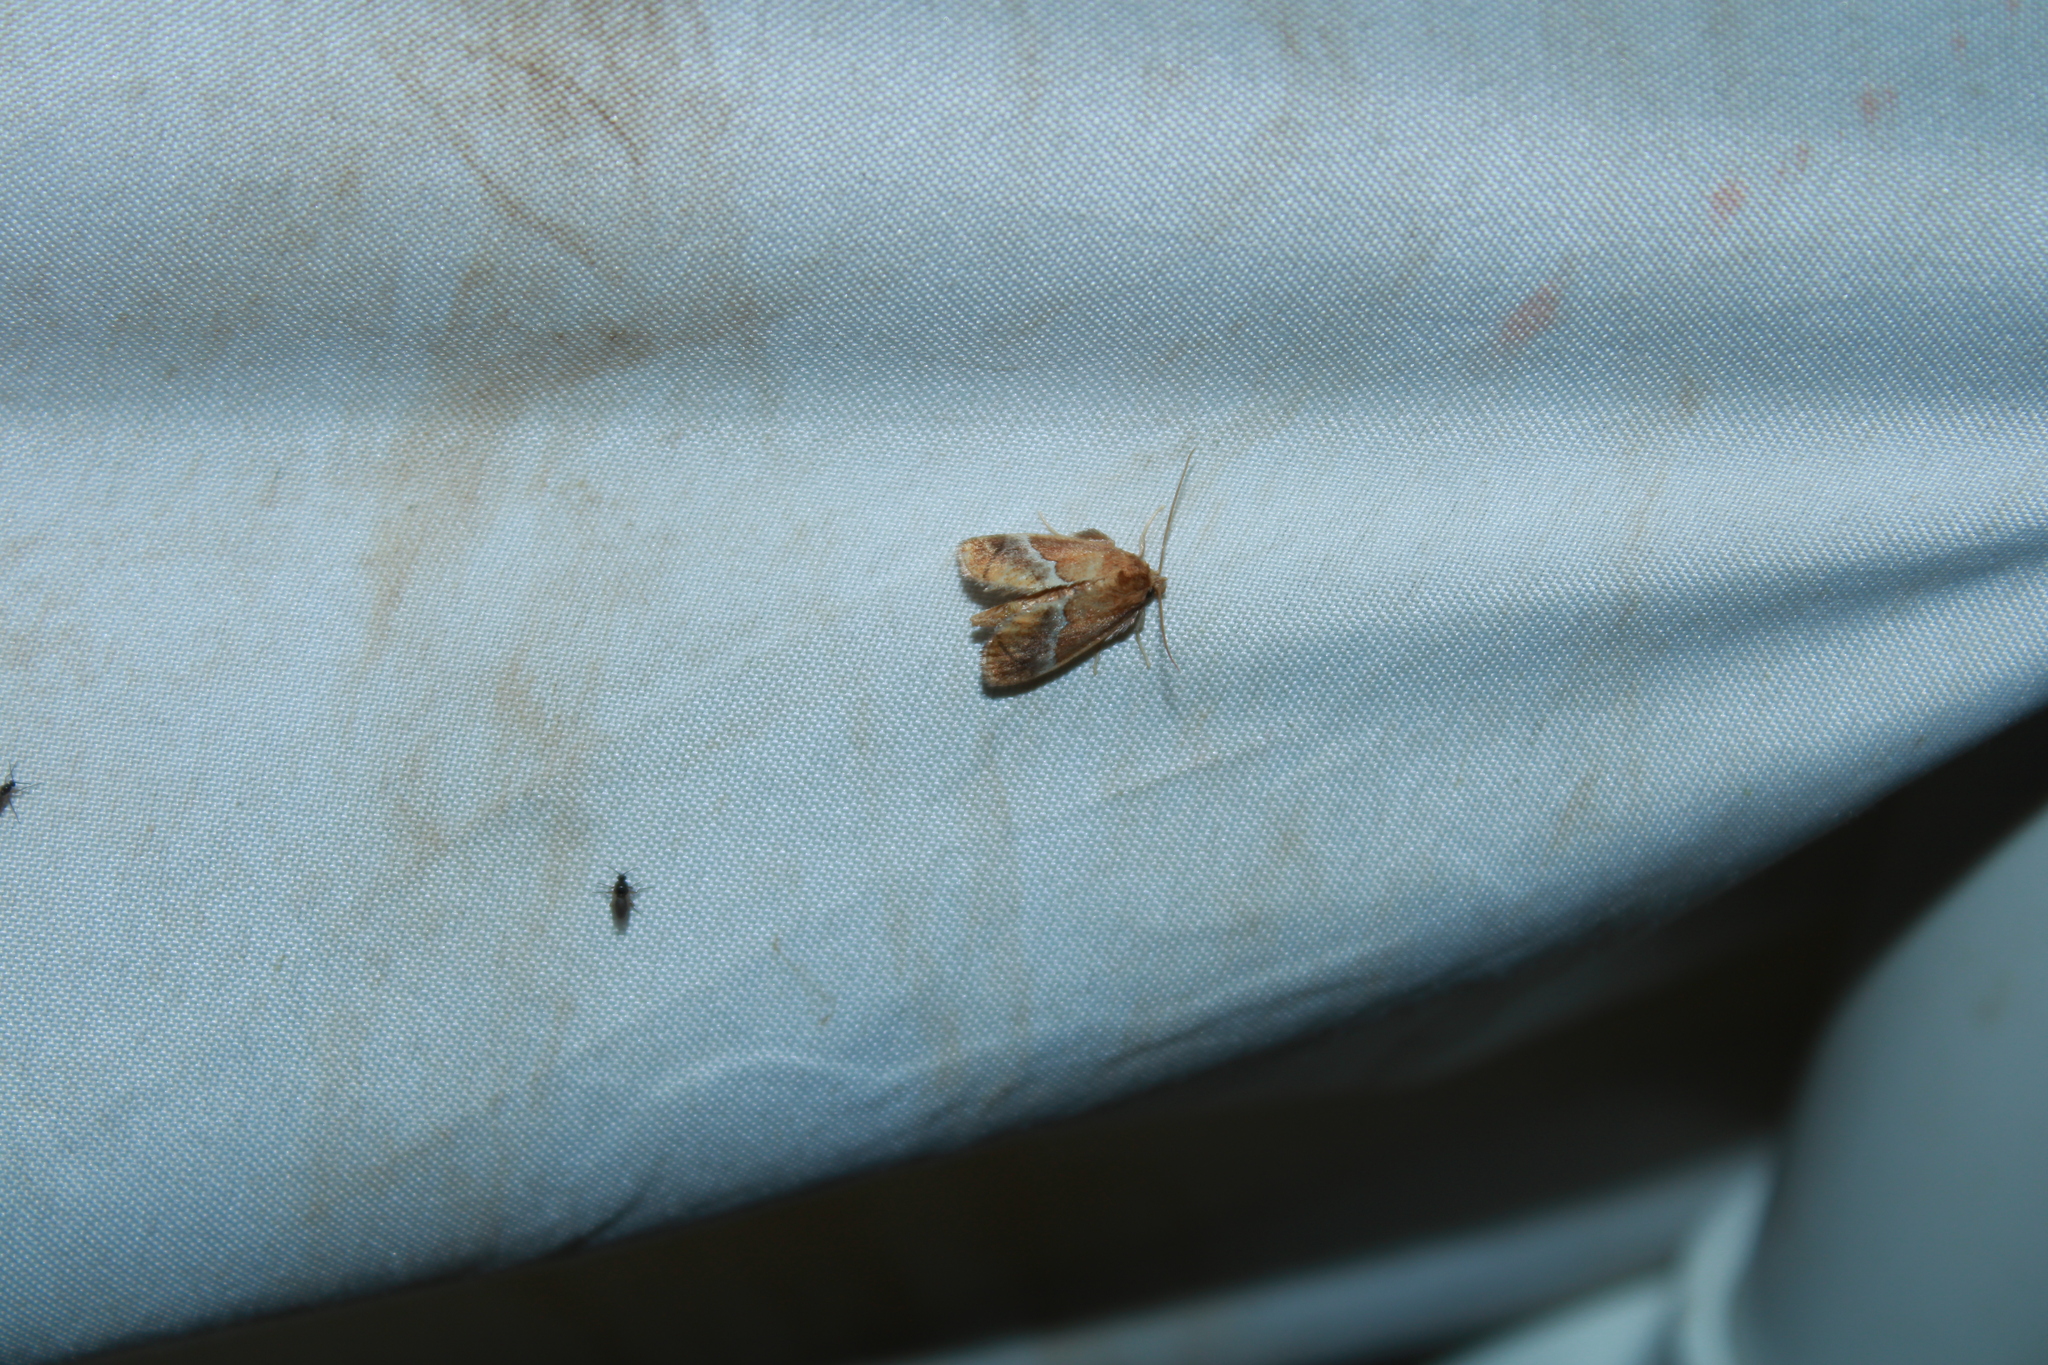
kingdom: Animalia
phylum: Arthropoda
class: Insecta
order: Lepidoptera
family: Limacodidae
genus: Lithacodes
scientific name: Lithacodes fasciola
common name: Yellow-shouldered slug moth
